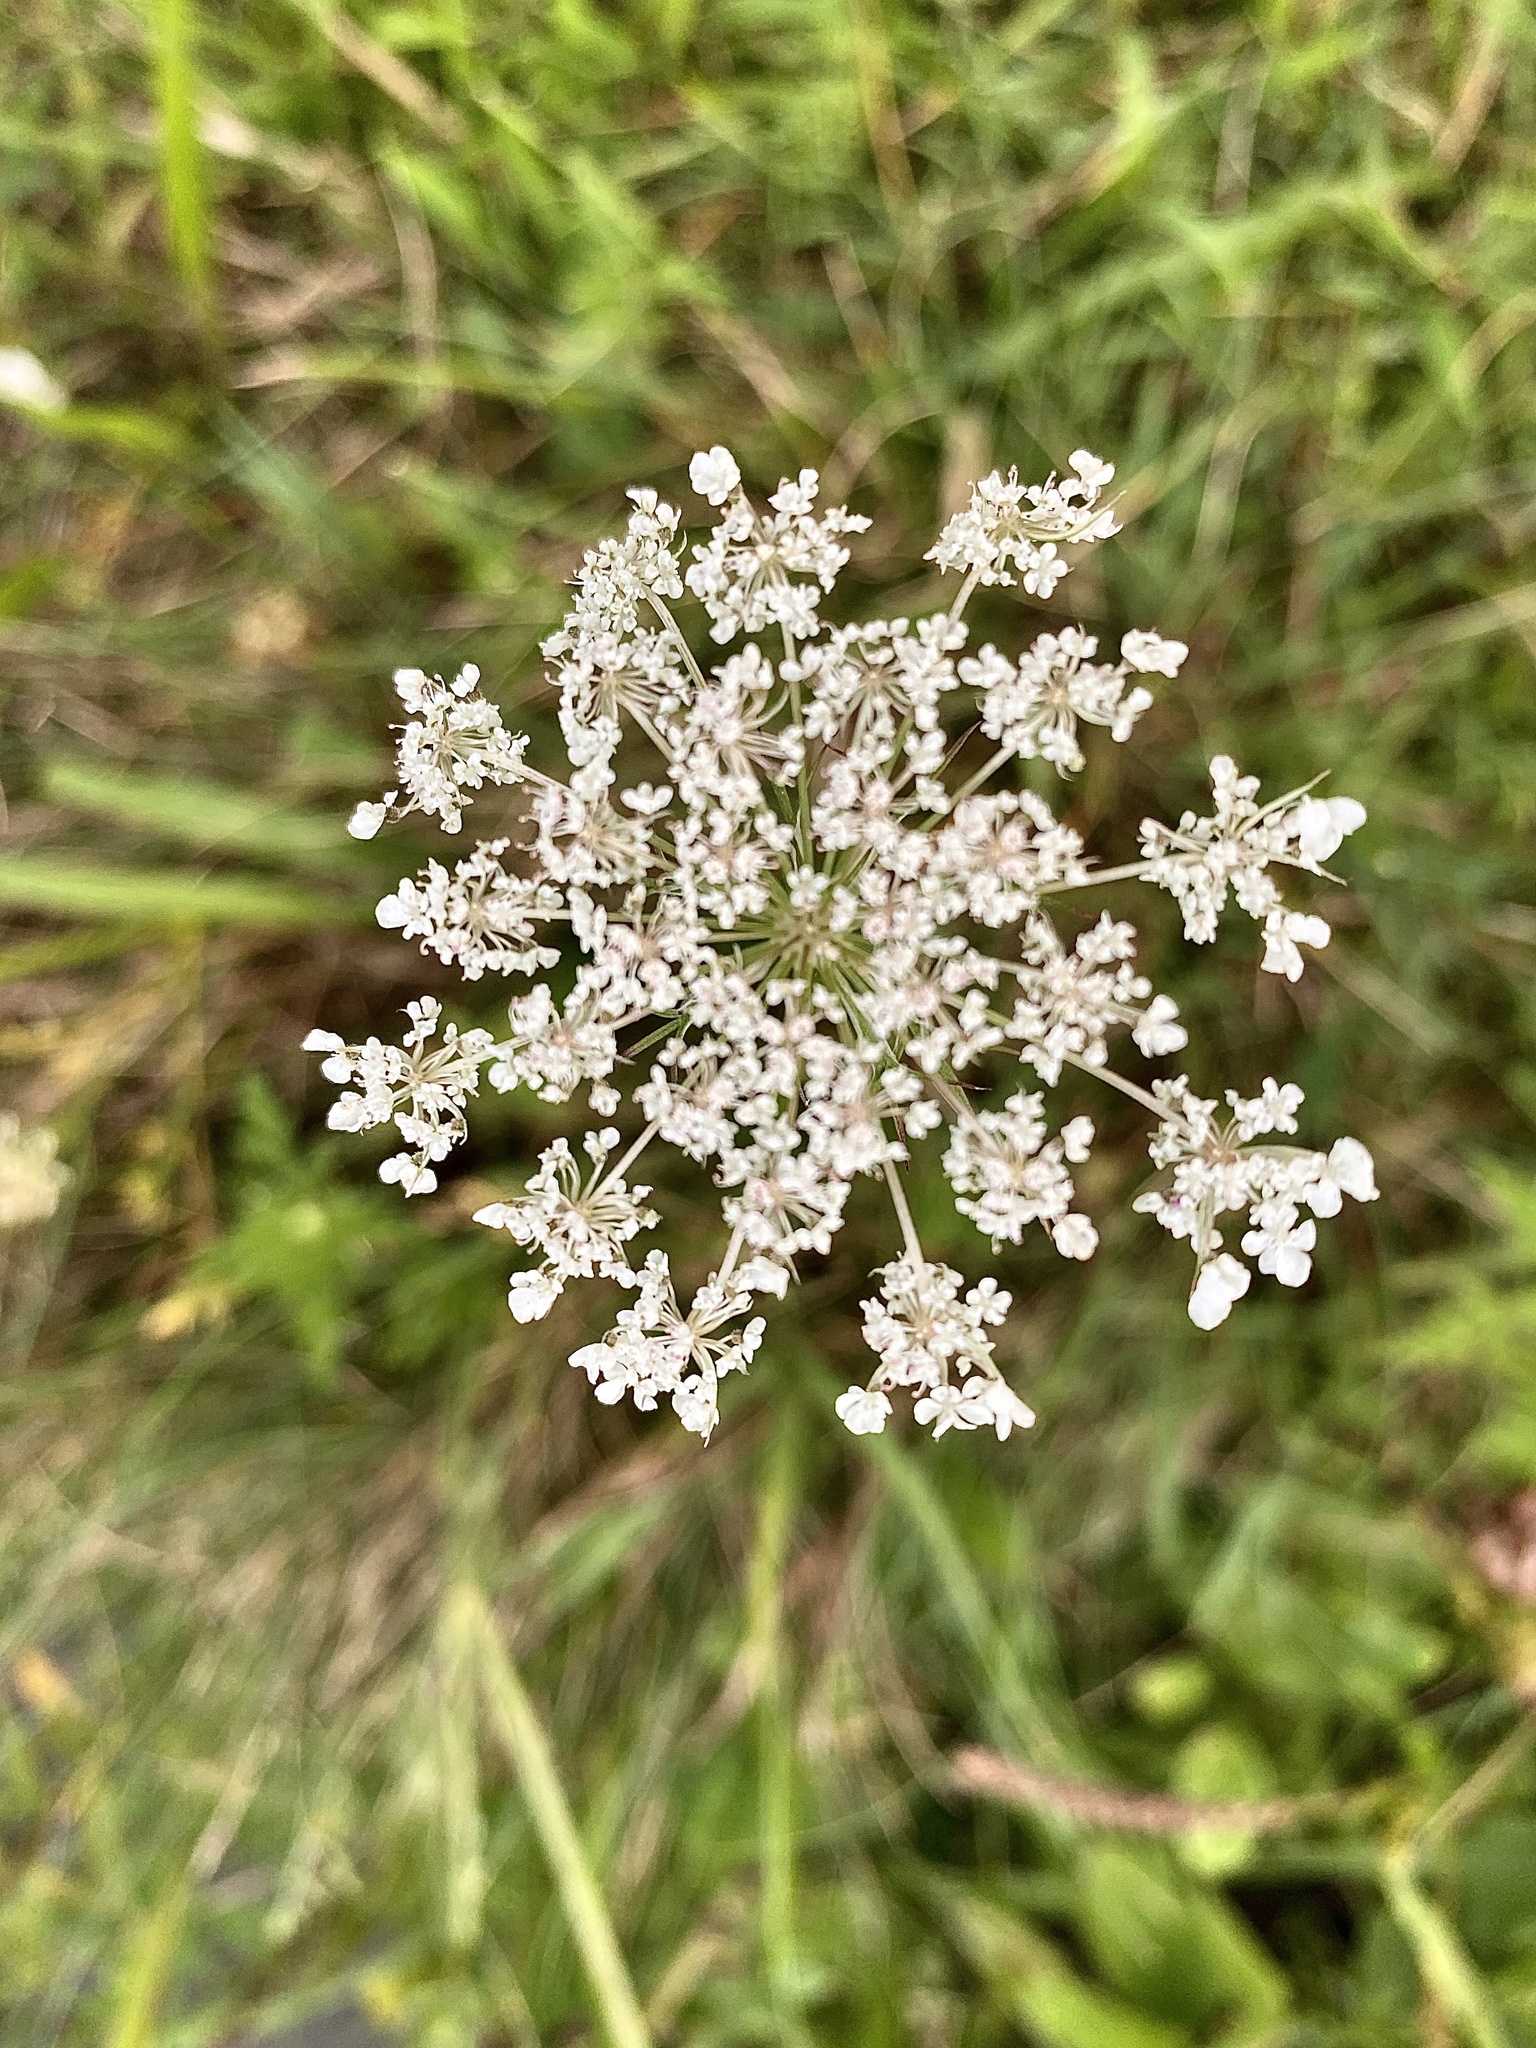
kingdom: Plantae
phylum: Tracheophyta
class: Magnoliopsida
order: Apiales
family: Apiaceae
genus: Daucus
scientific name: Daucus carota
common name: Wild carrot
